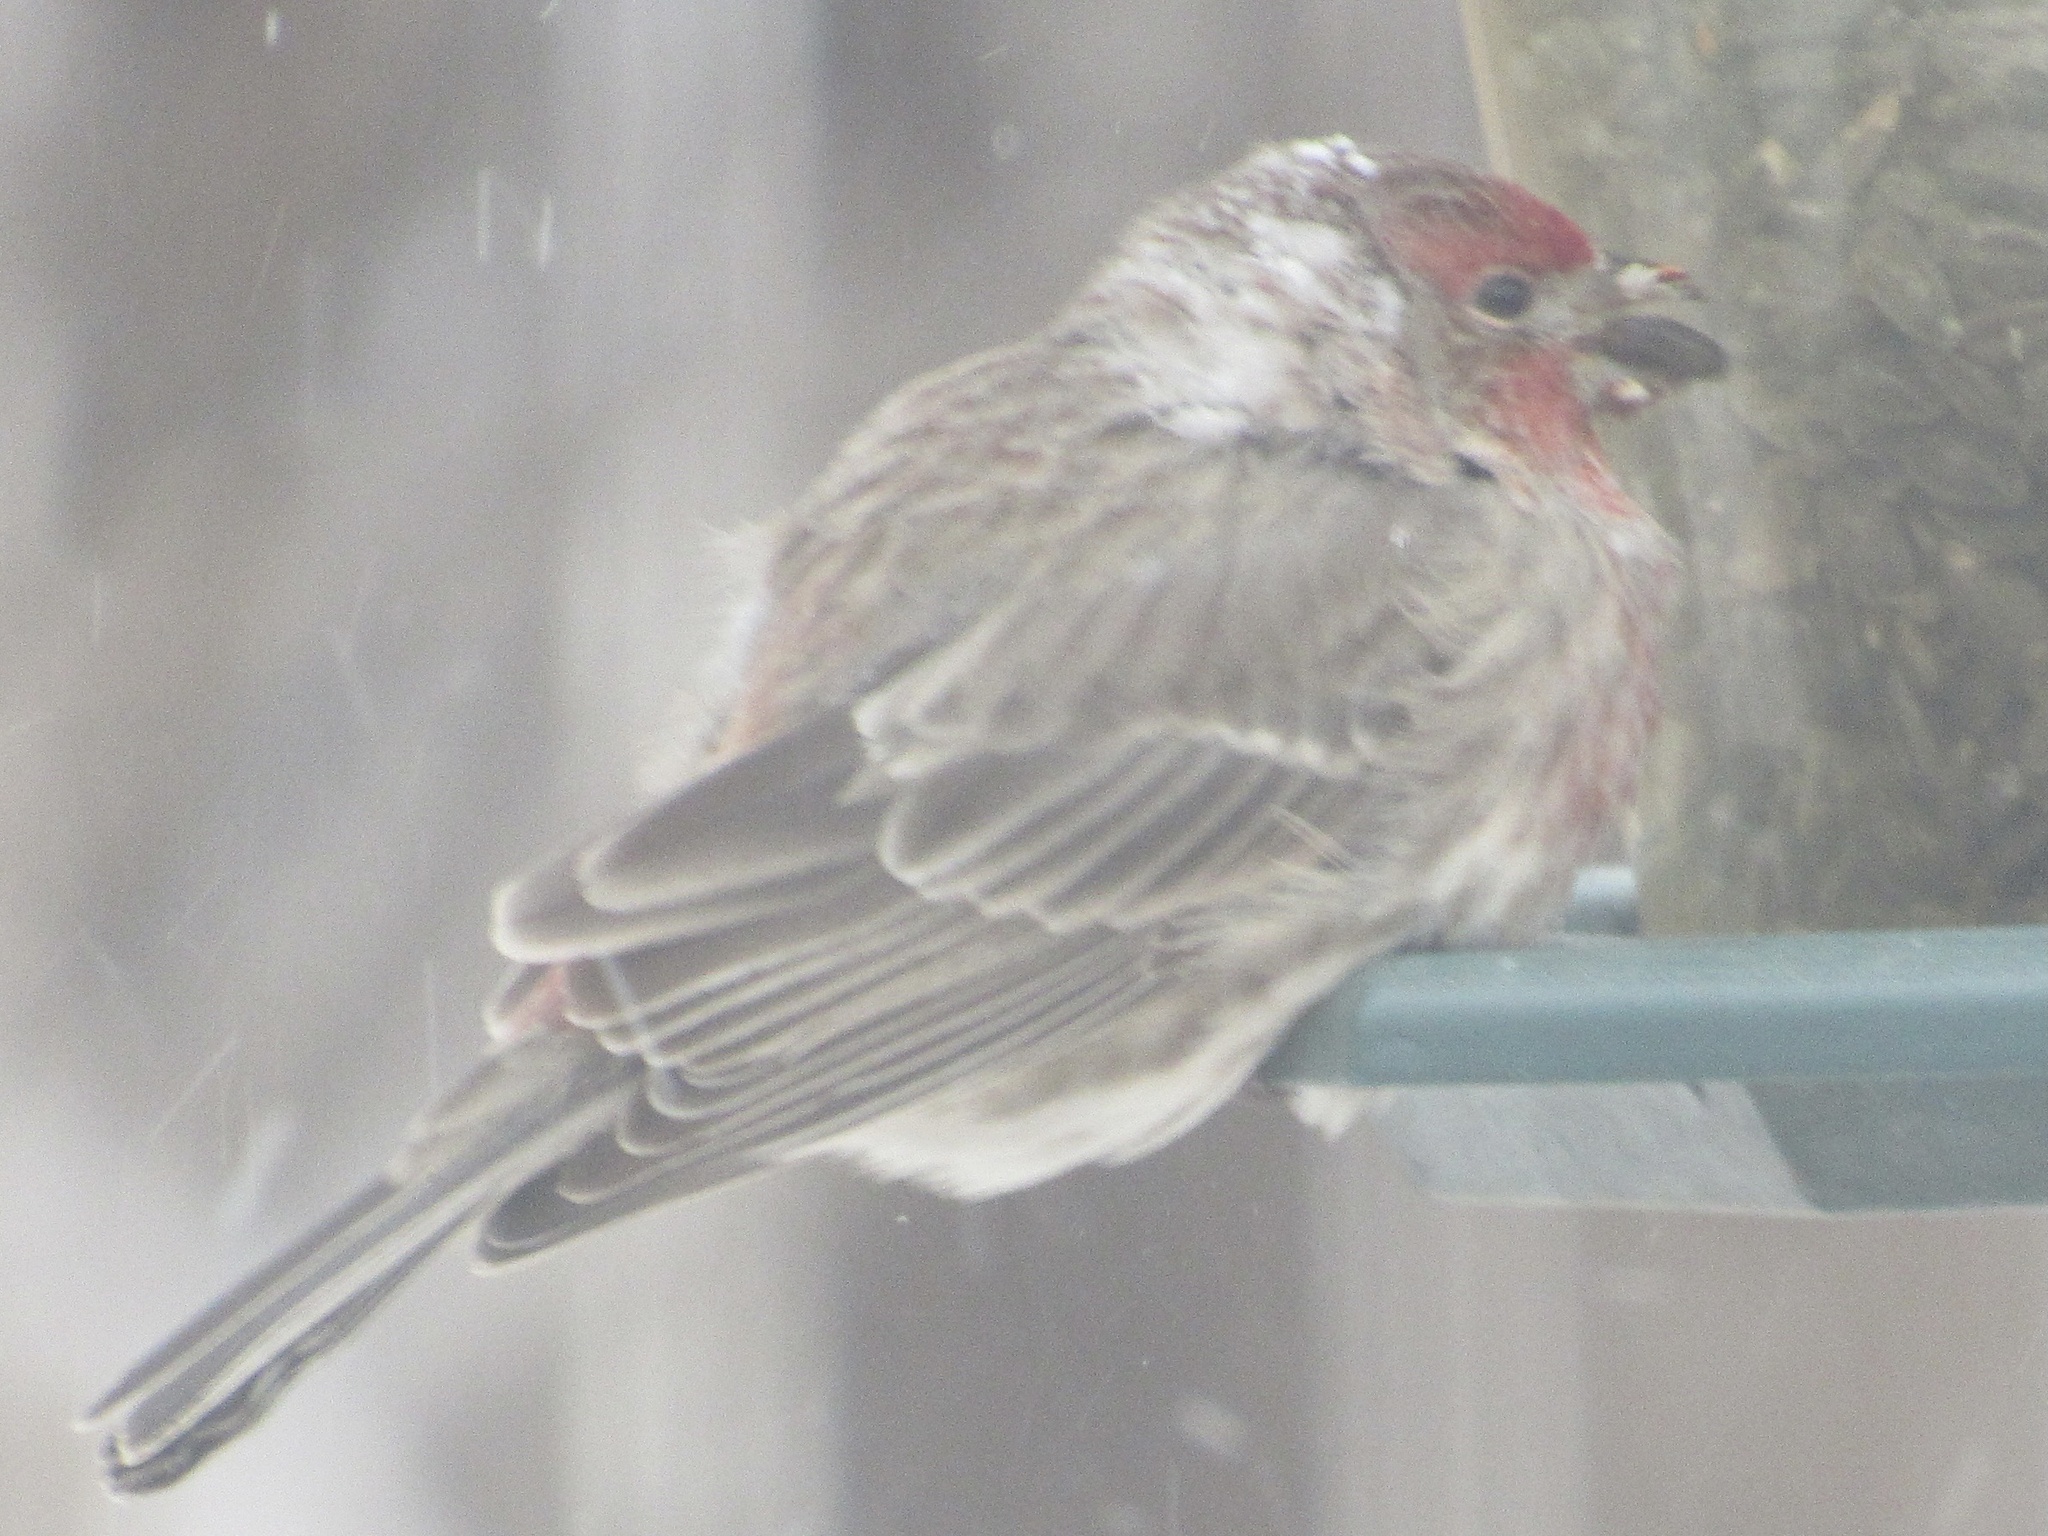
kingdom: Animalia
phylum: Chordata
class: Aves
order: Passeriformes
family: Fringillidae
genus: Haemorhous
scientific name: Haemorhous mexicanus
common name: House finch
